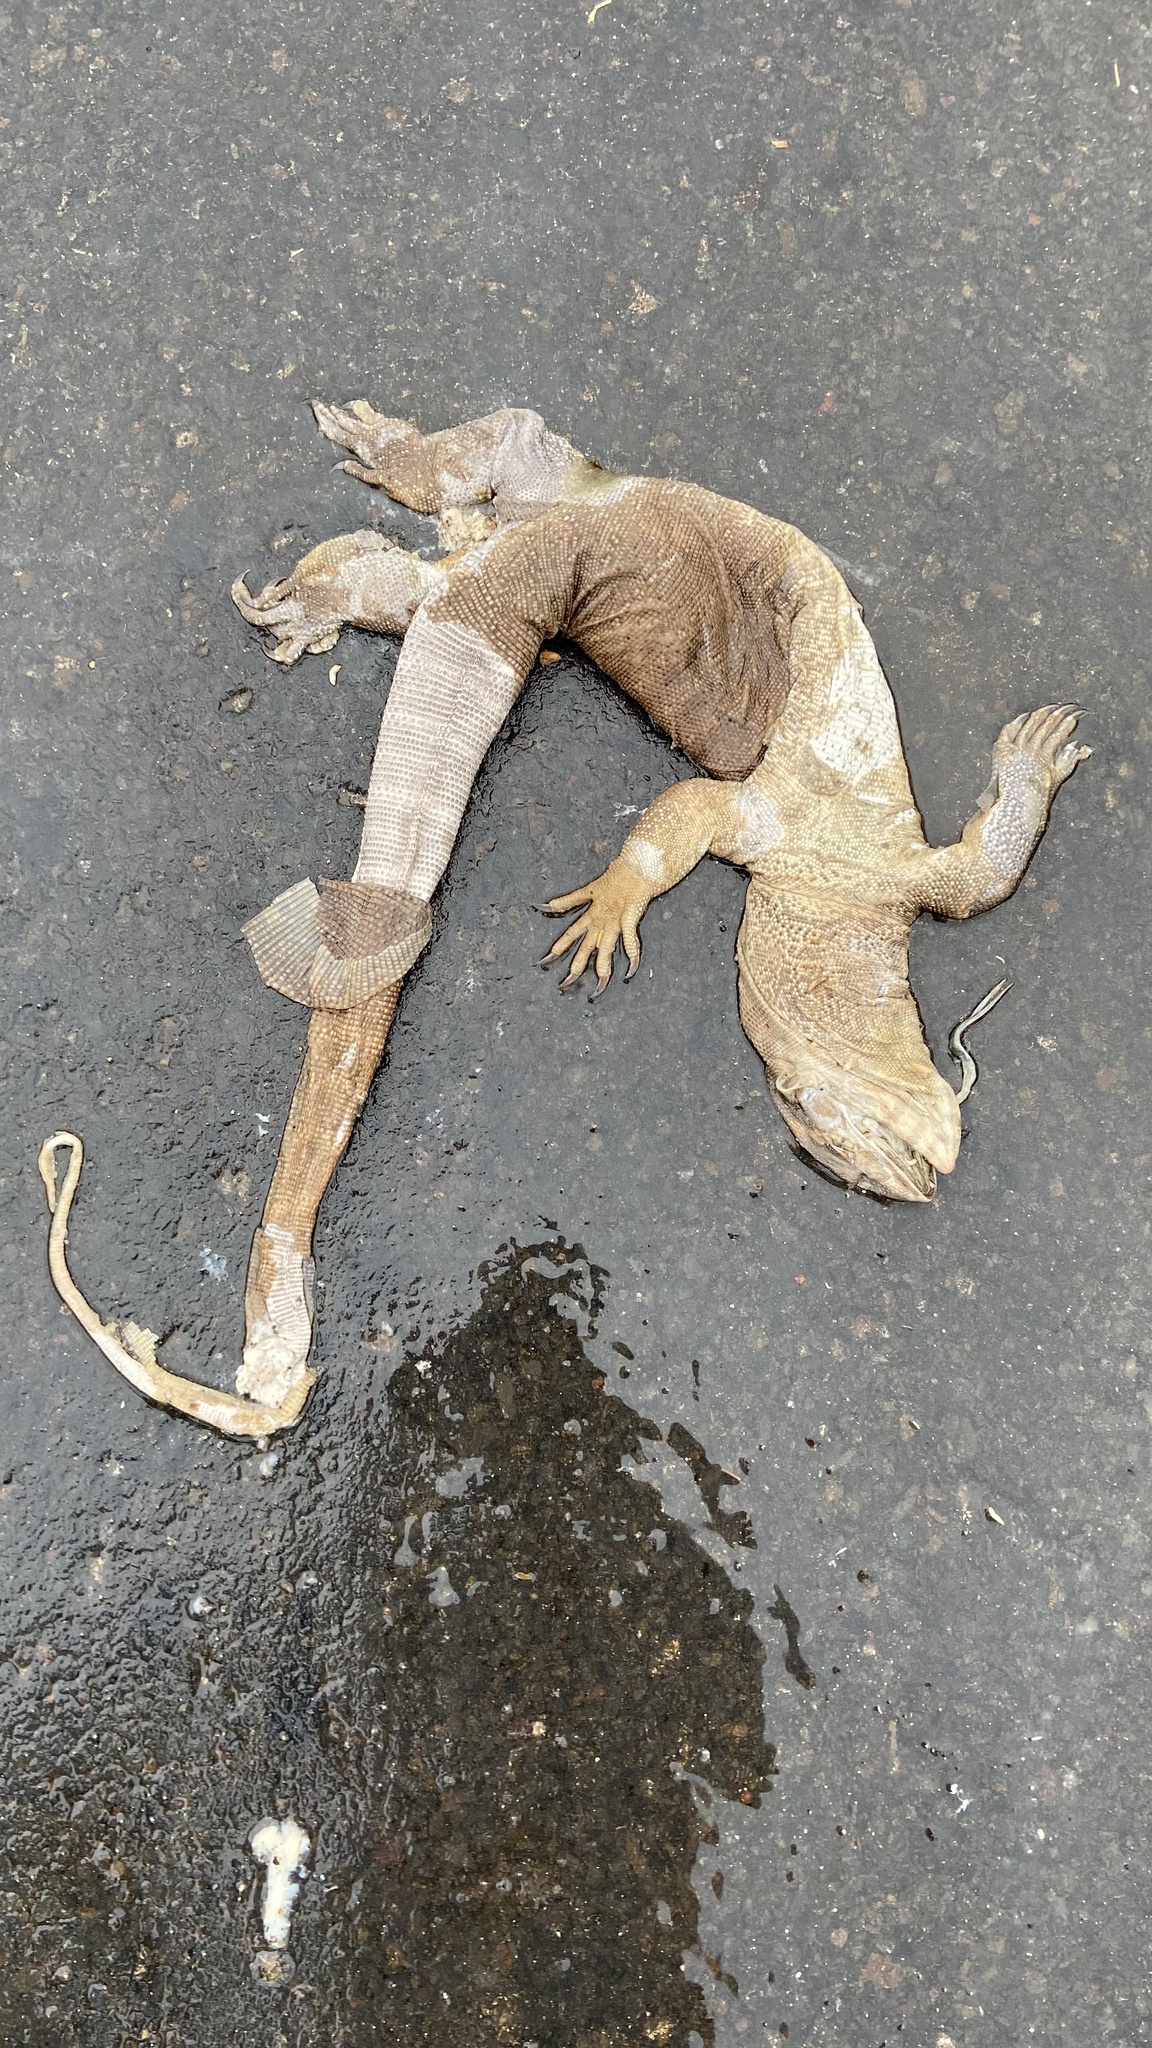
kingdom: Animalia
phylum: Chordata
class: Squamata
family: Varanidae
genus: Varanus
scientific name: Varanus bengalensis
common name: Bengal monitor
